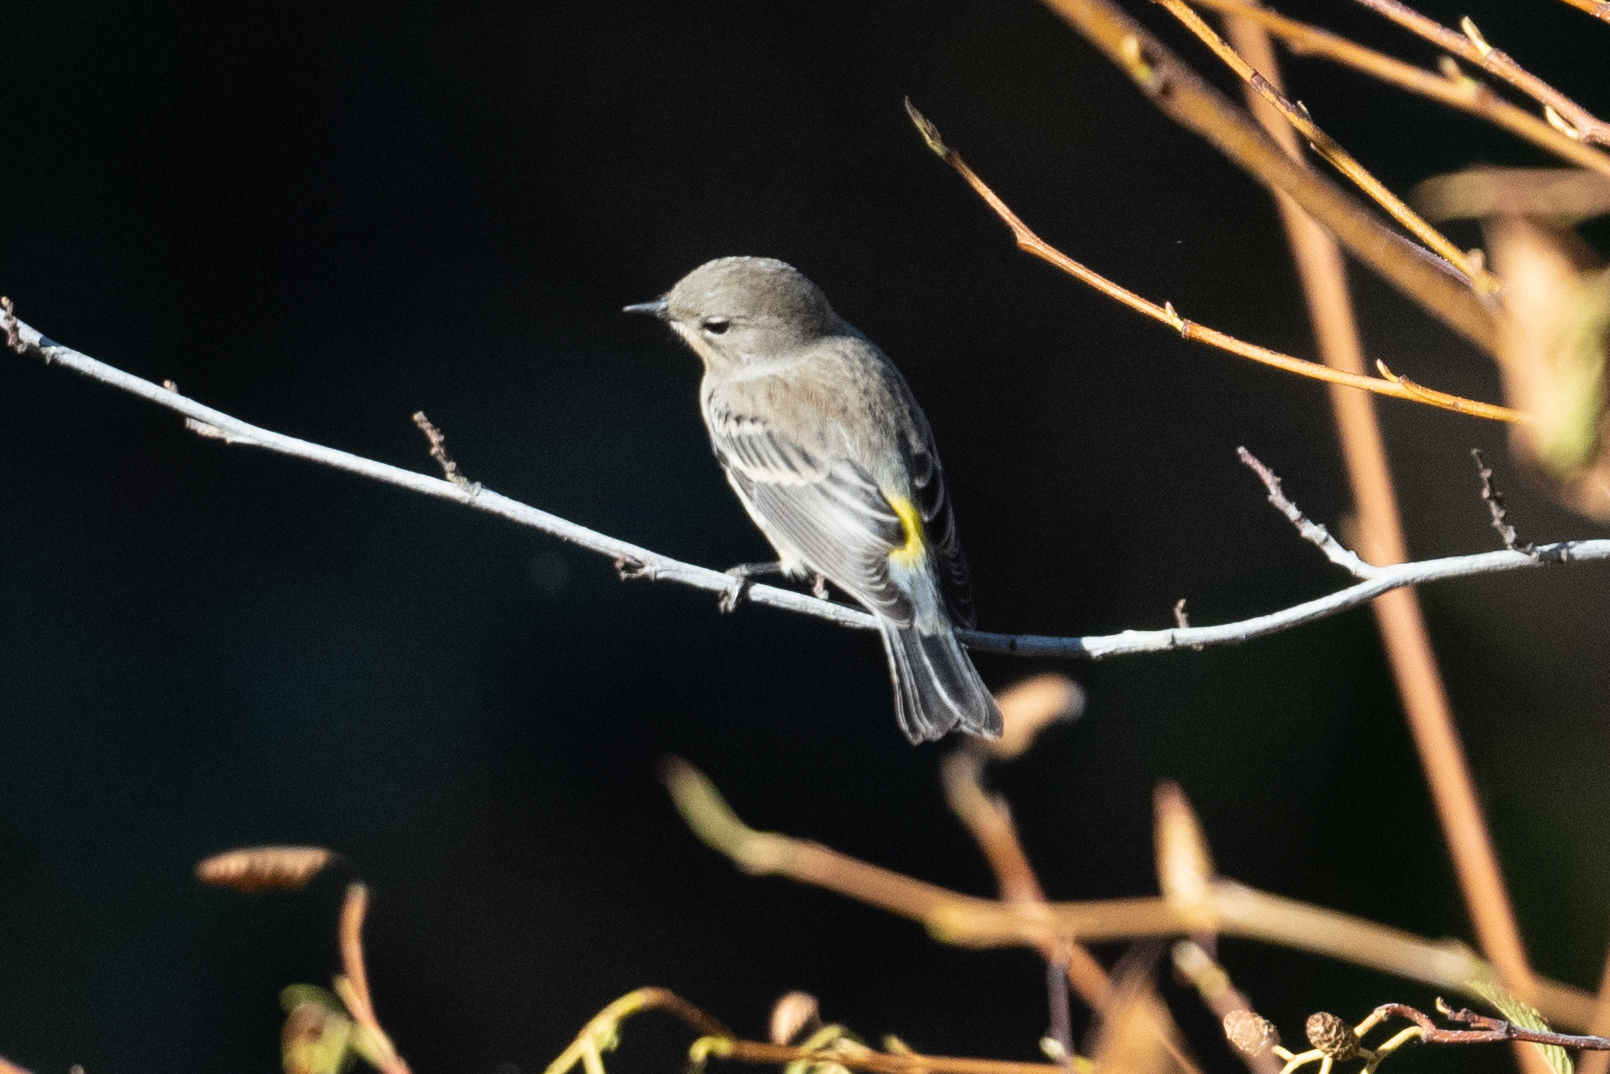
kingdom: Animalia
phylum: Chordata
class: Aves
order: Passeriformes
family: Parulidae
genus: Setophaga
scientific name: Setophaga coronata
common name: Myrtle warbler
